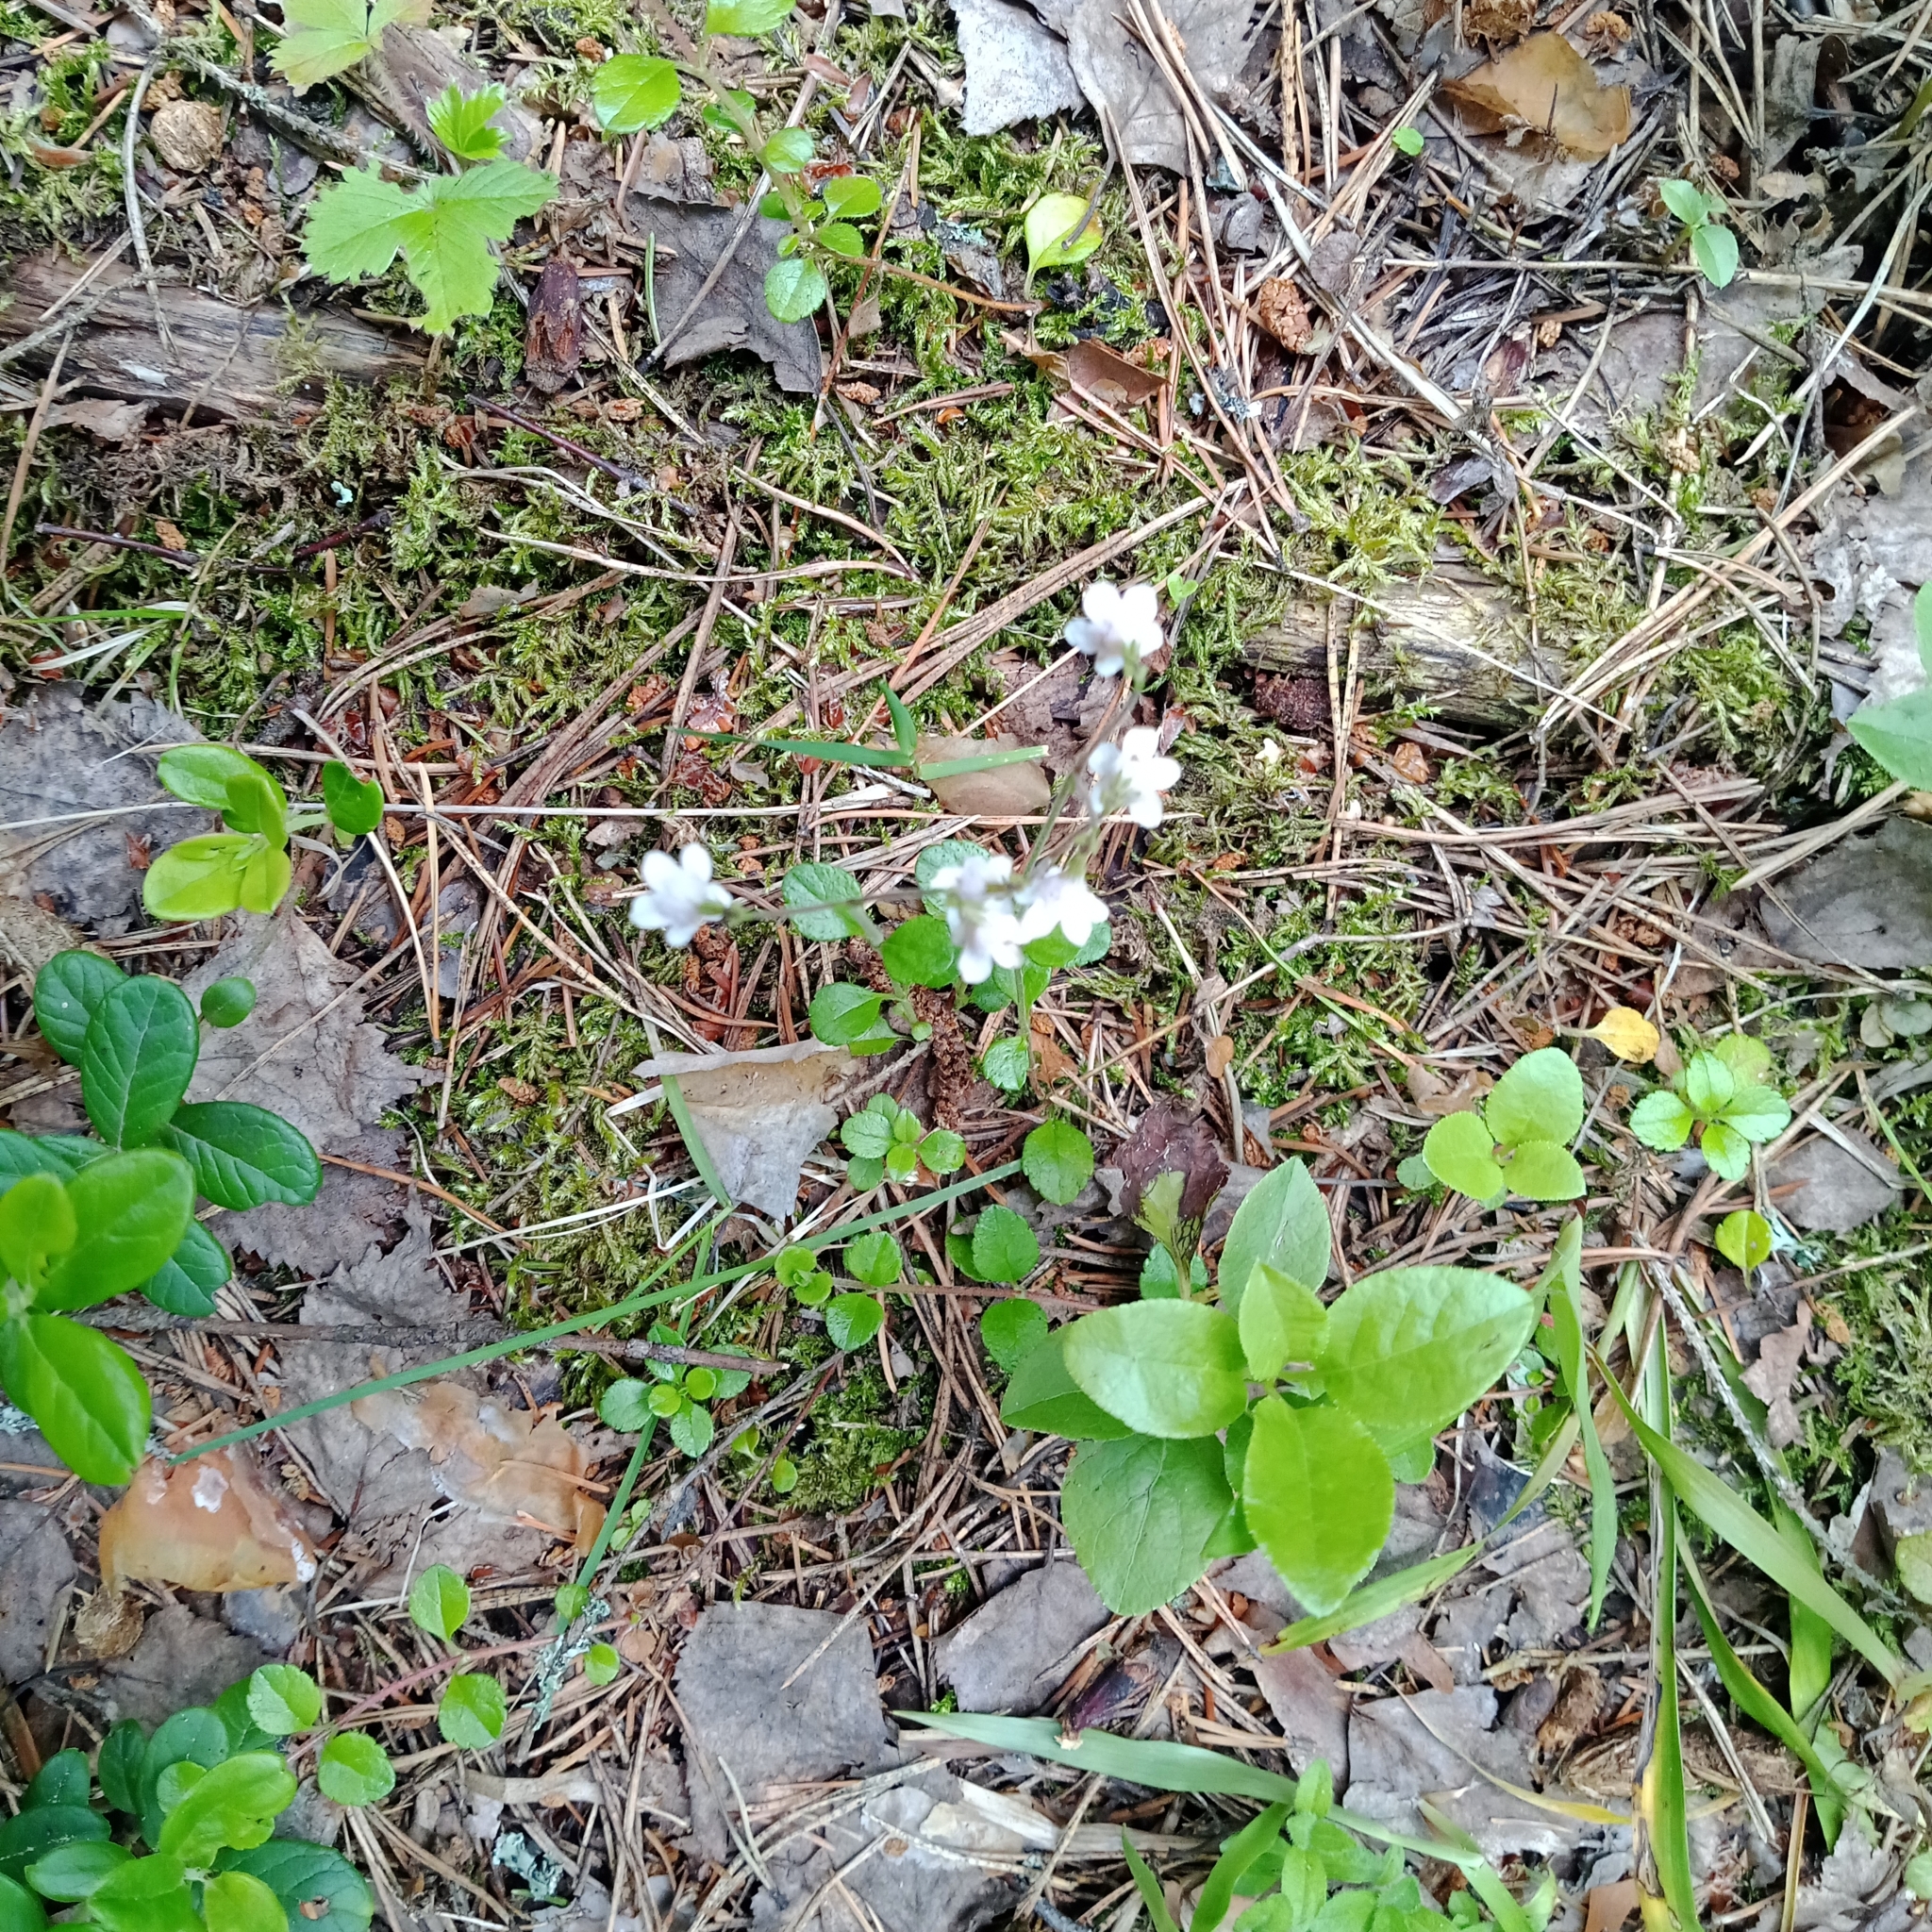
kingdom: Plantae
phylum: Tracheophyta
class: Magnoliopsida
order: Dipsacales
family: Caprifoliaceae
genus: Linnaea
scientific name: Linnaea borealis
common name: Twinflower
